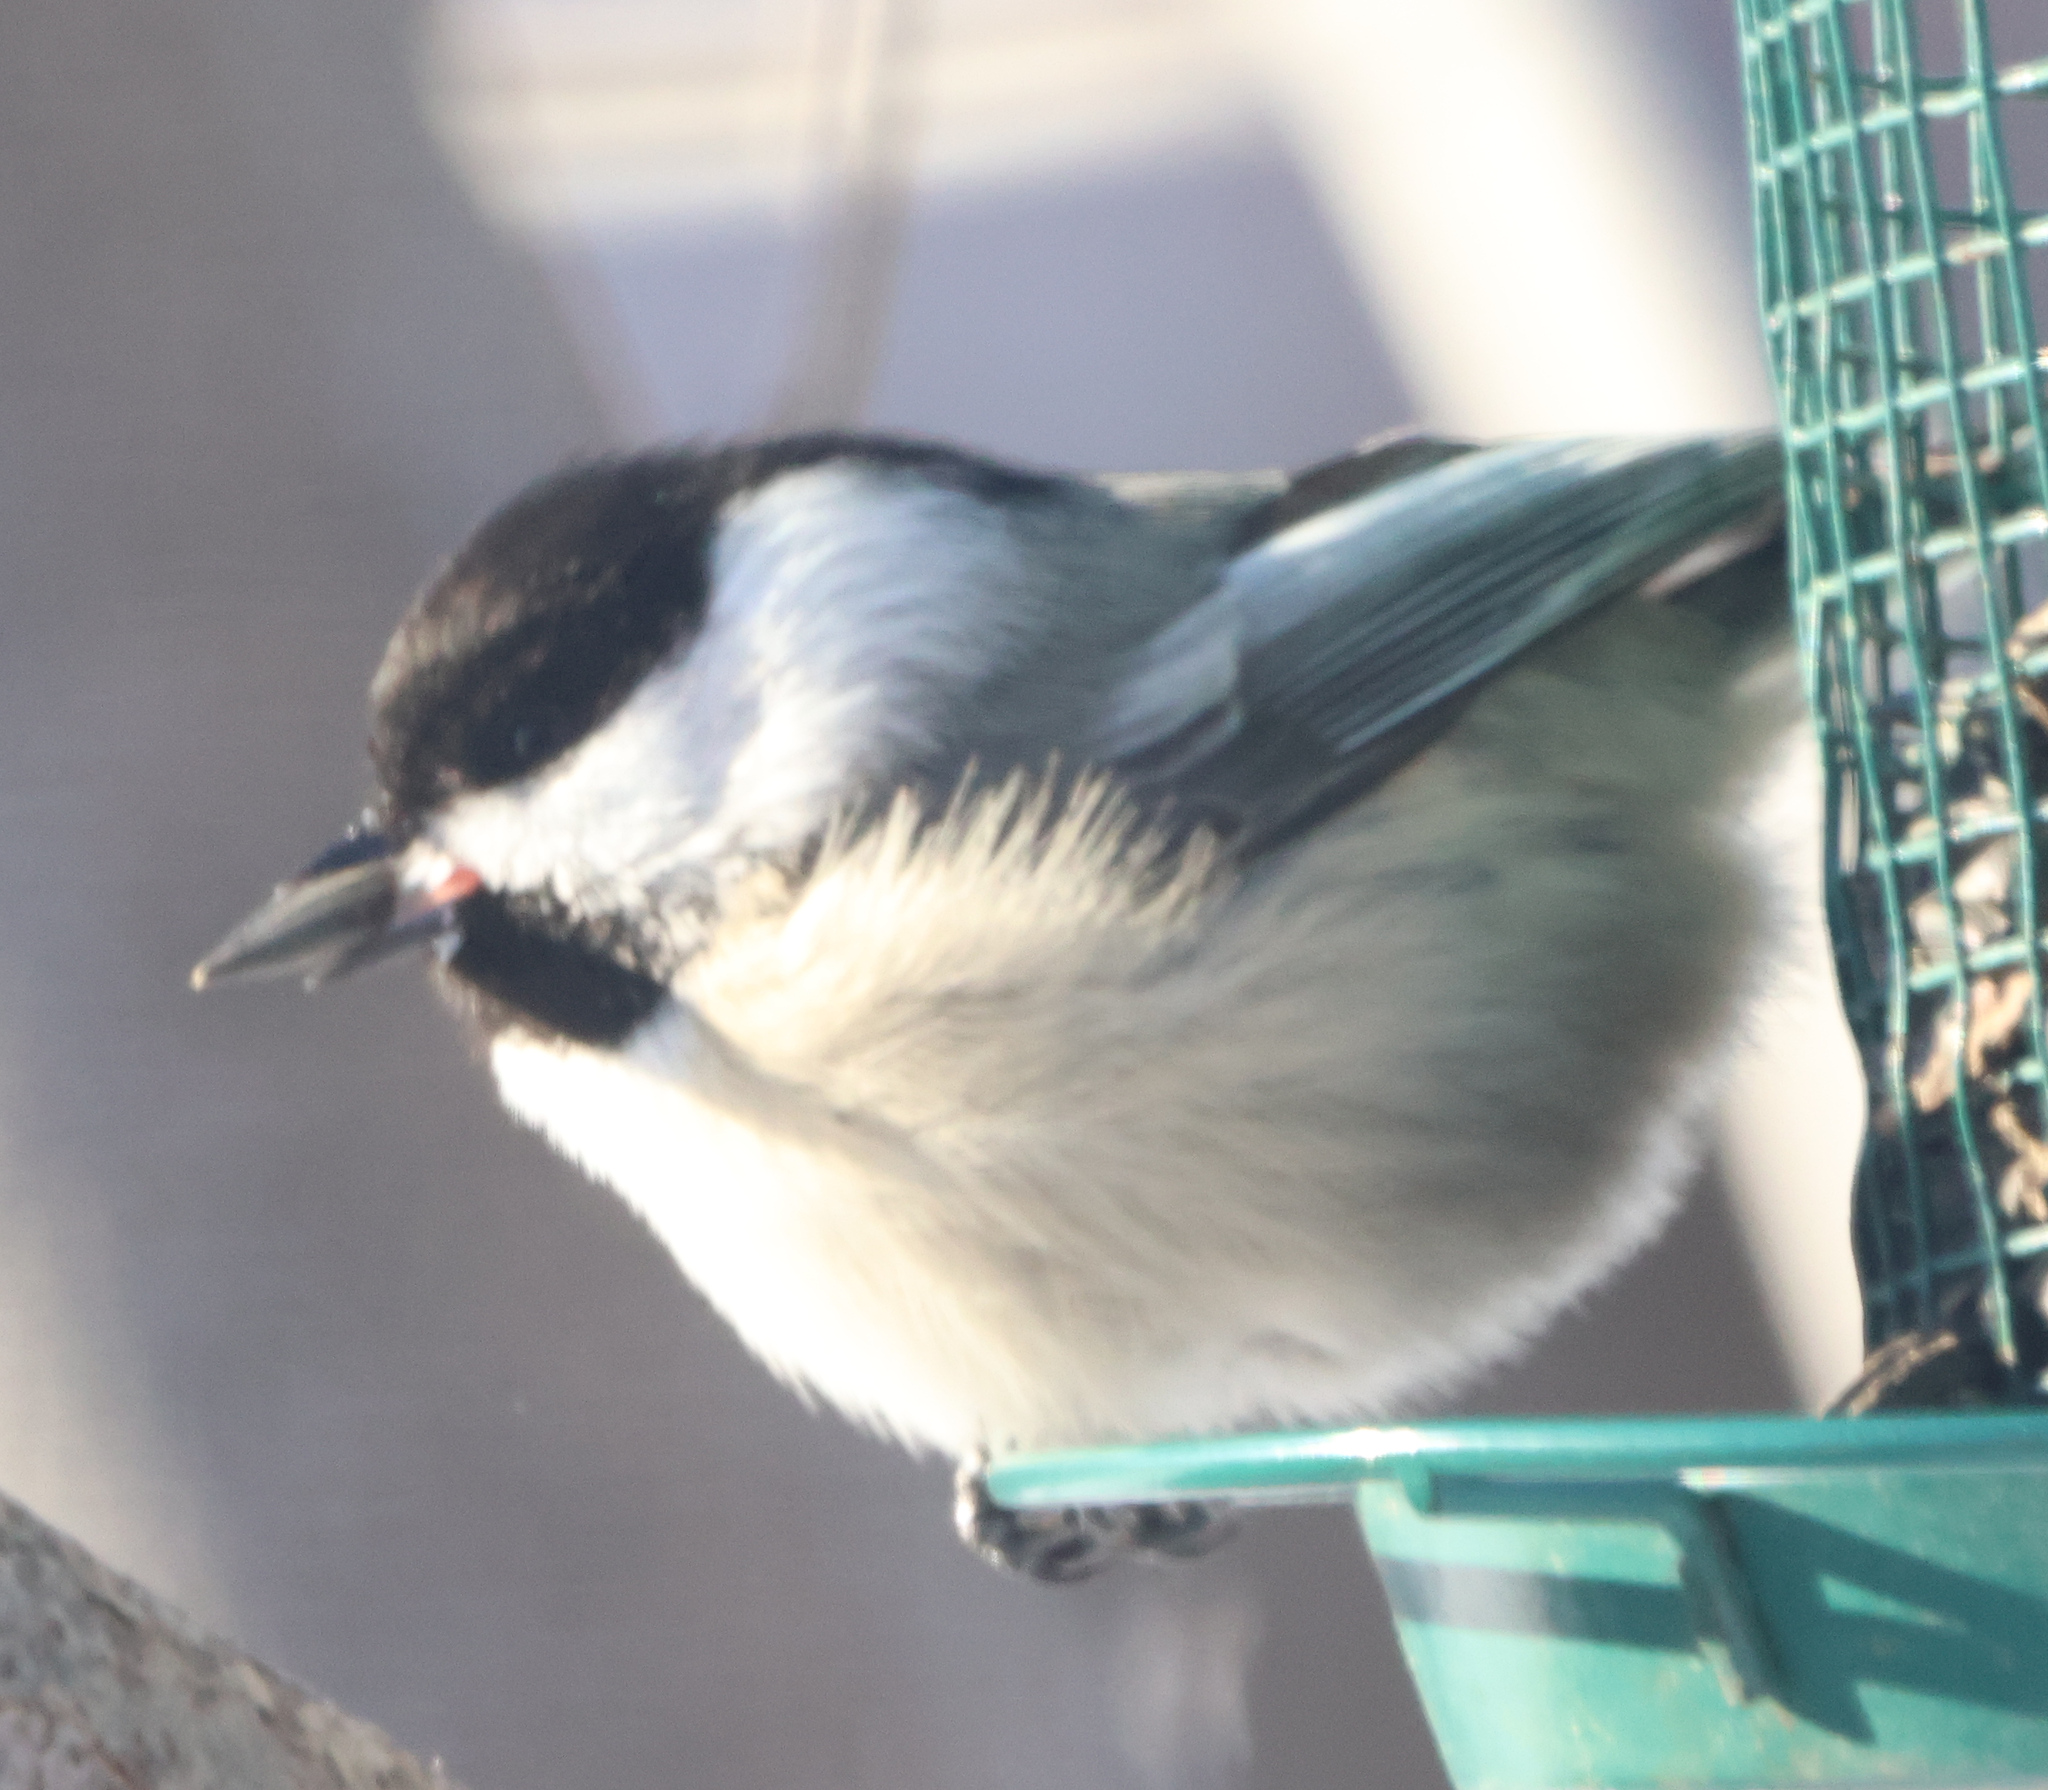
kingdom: Animalia
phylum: Chordata
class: Aves
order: Passeriformes
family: Paridae
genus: Poecile
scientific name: Poecile atricapillus
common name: Black-capped chickadee
